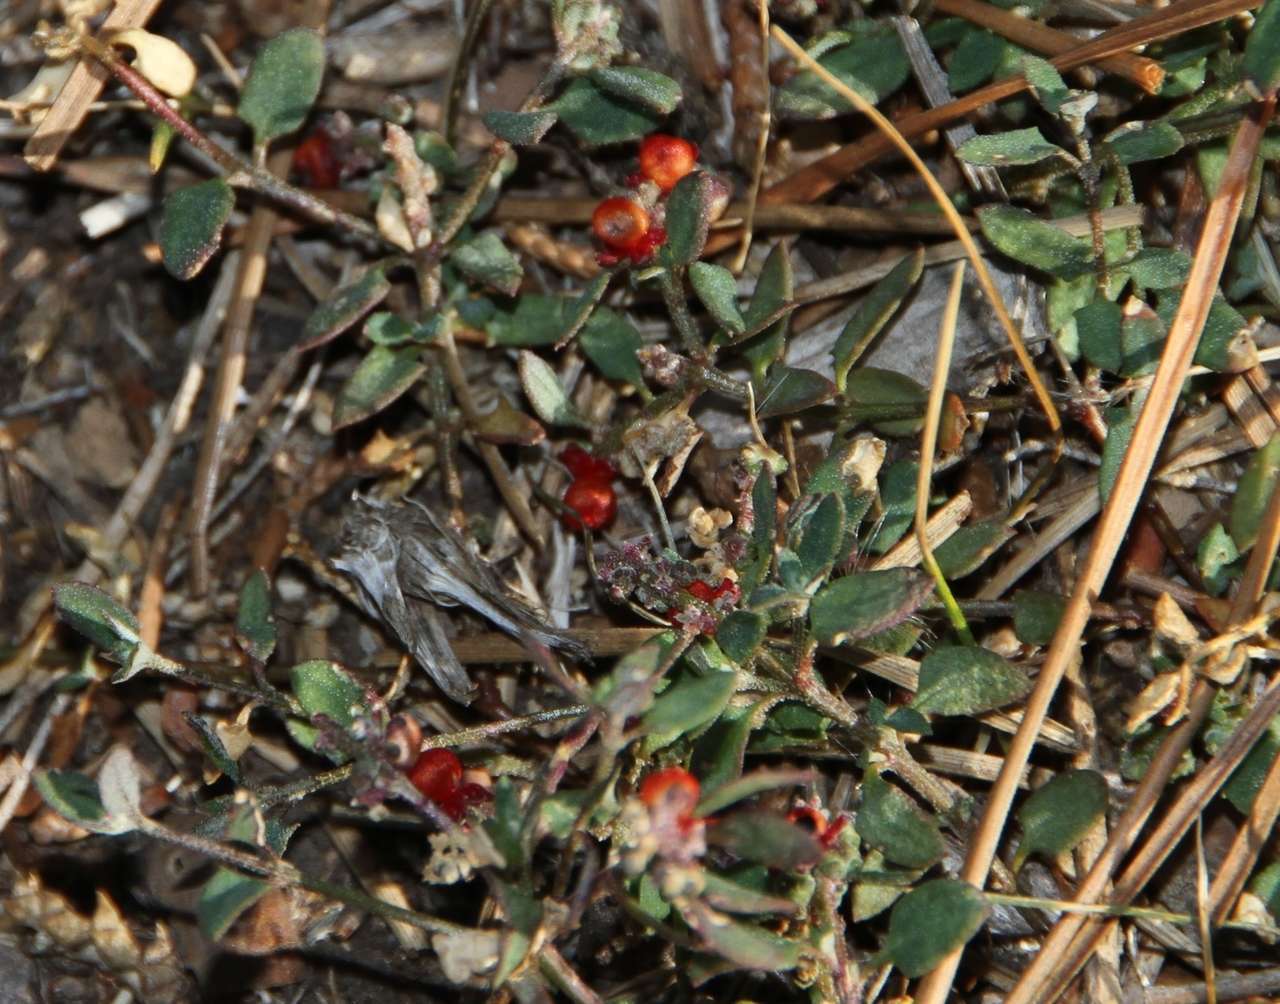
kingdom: Plantae
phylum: Tracheophyta
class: Magnoliopsida
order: Caryophyllales
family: Amaranthaceae
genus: Chenopodium
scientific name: Chenopodium nutans
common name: Climbing-saltbush
